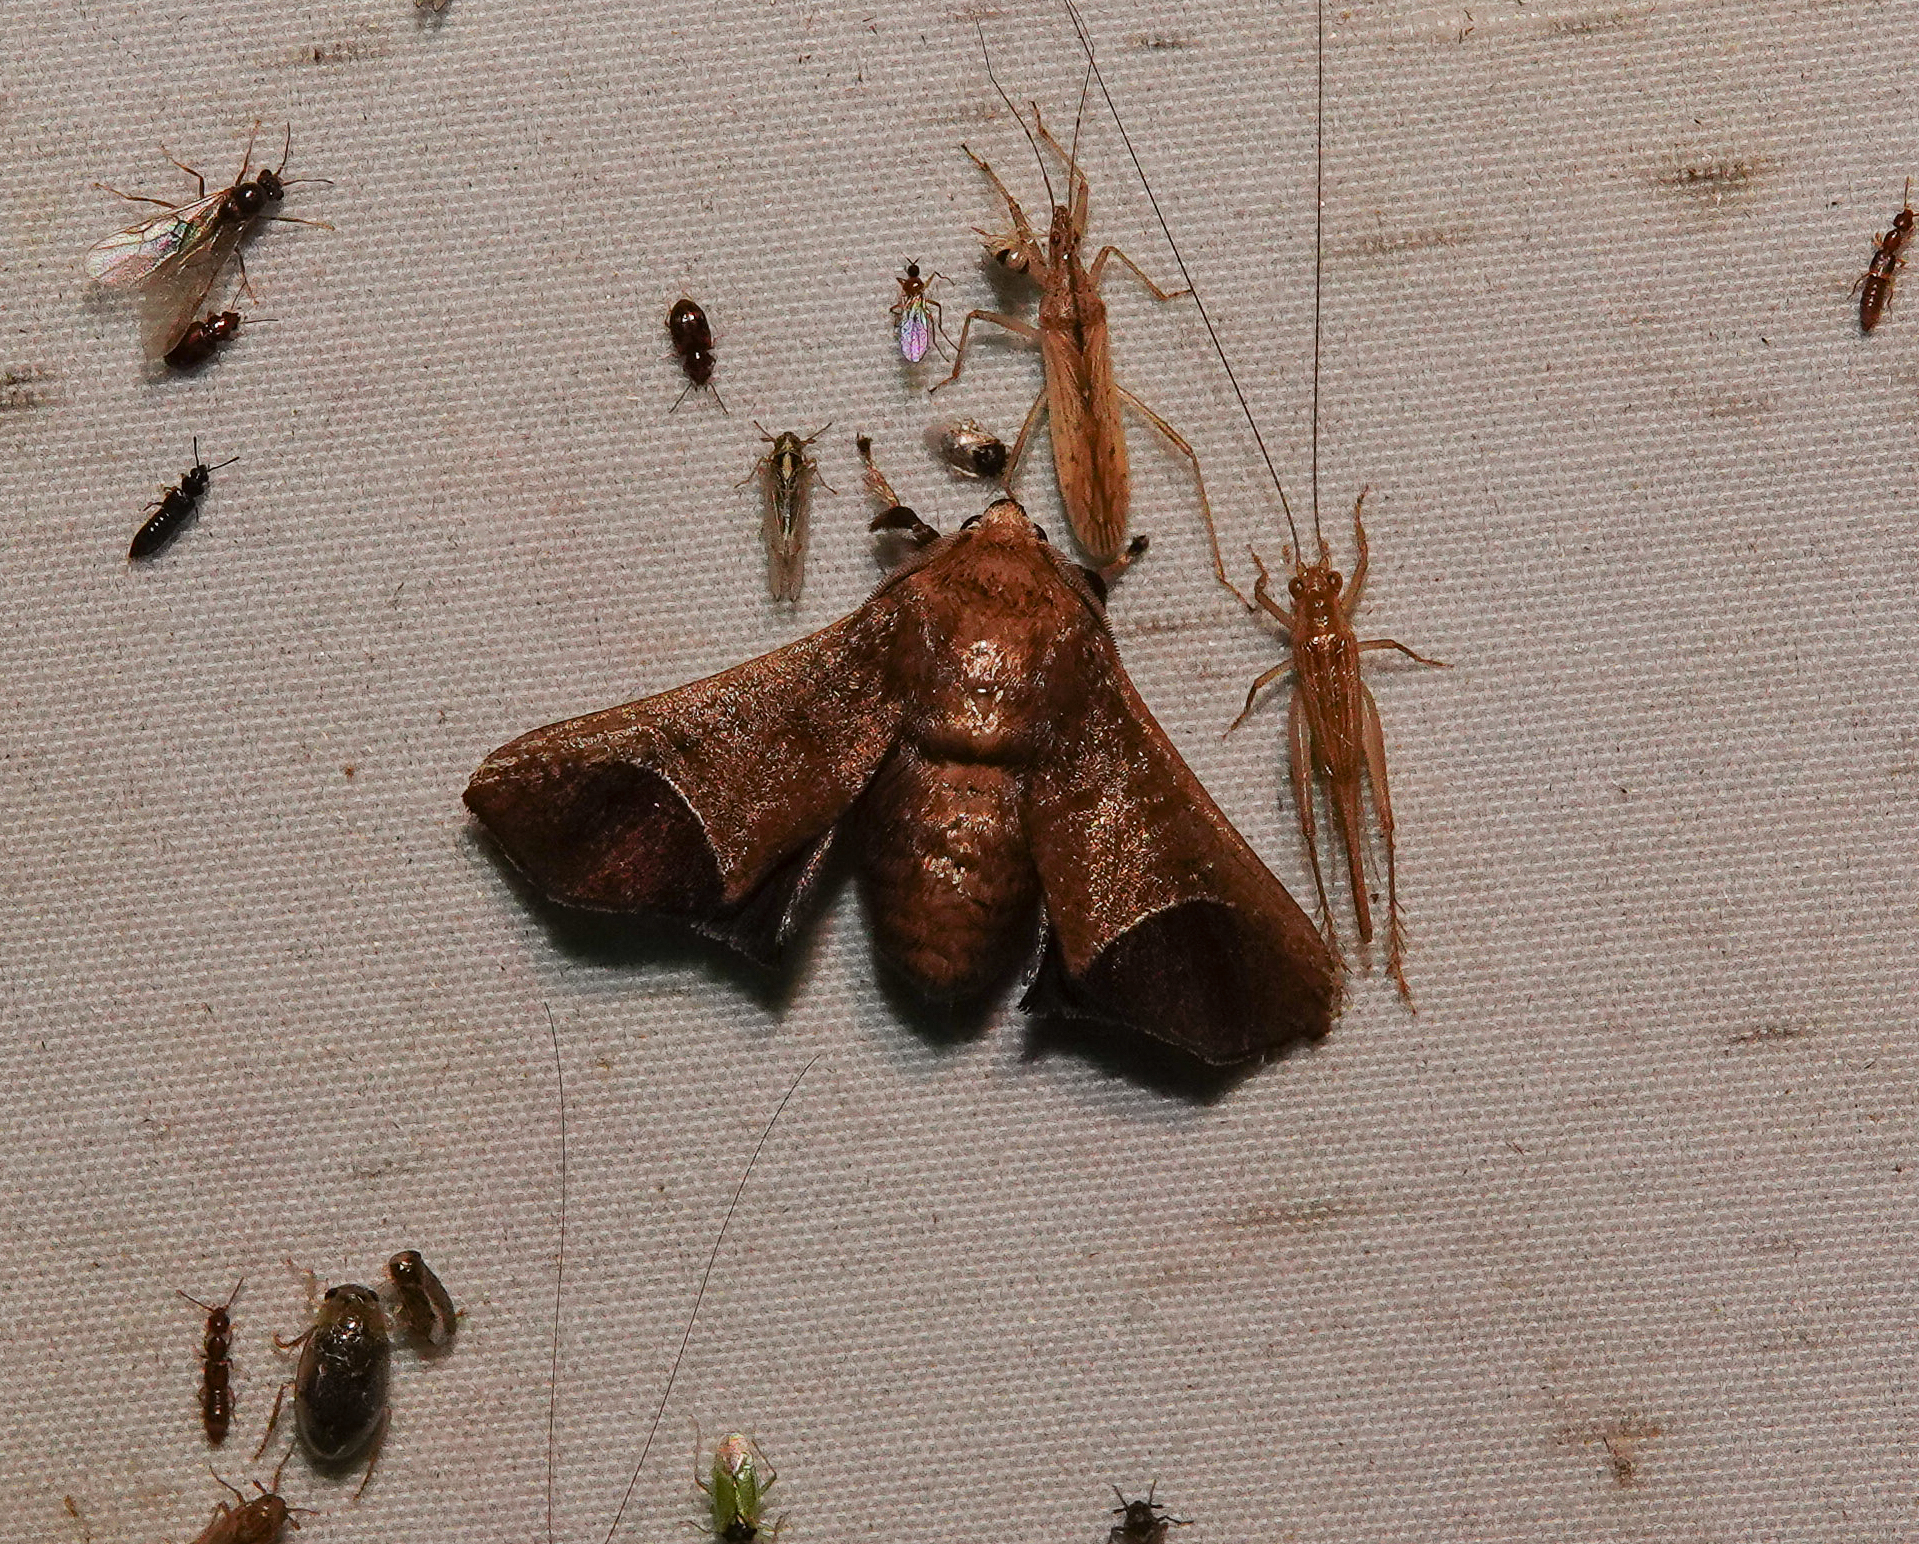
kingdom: Animalia
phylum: Arthropoda
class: Insecta
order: Lepidoptera
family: Limacodidae
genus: Idonauton
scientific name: Idonauton apicalis
